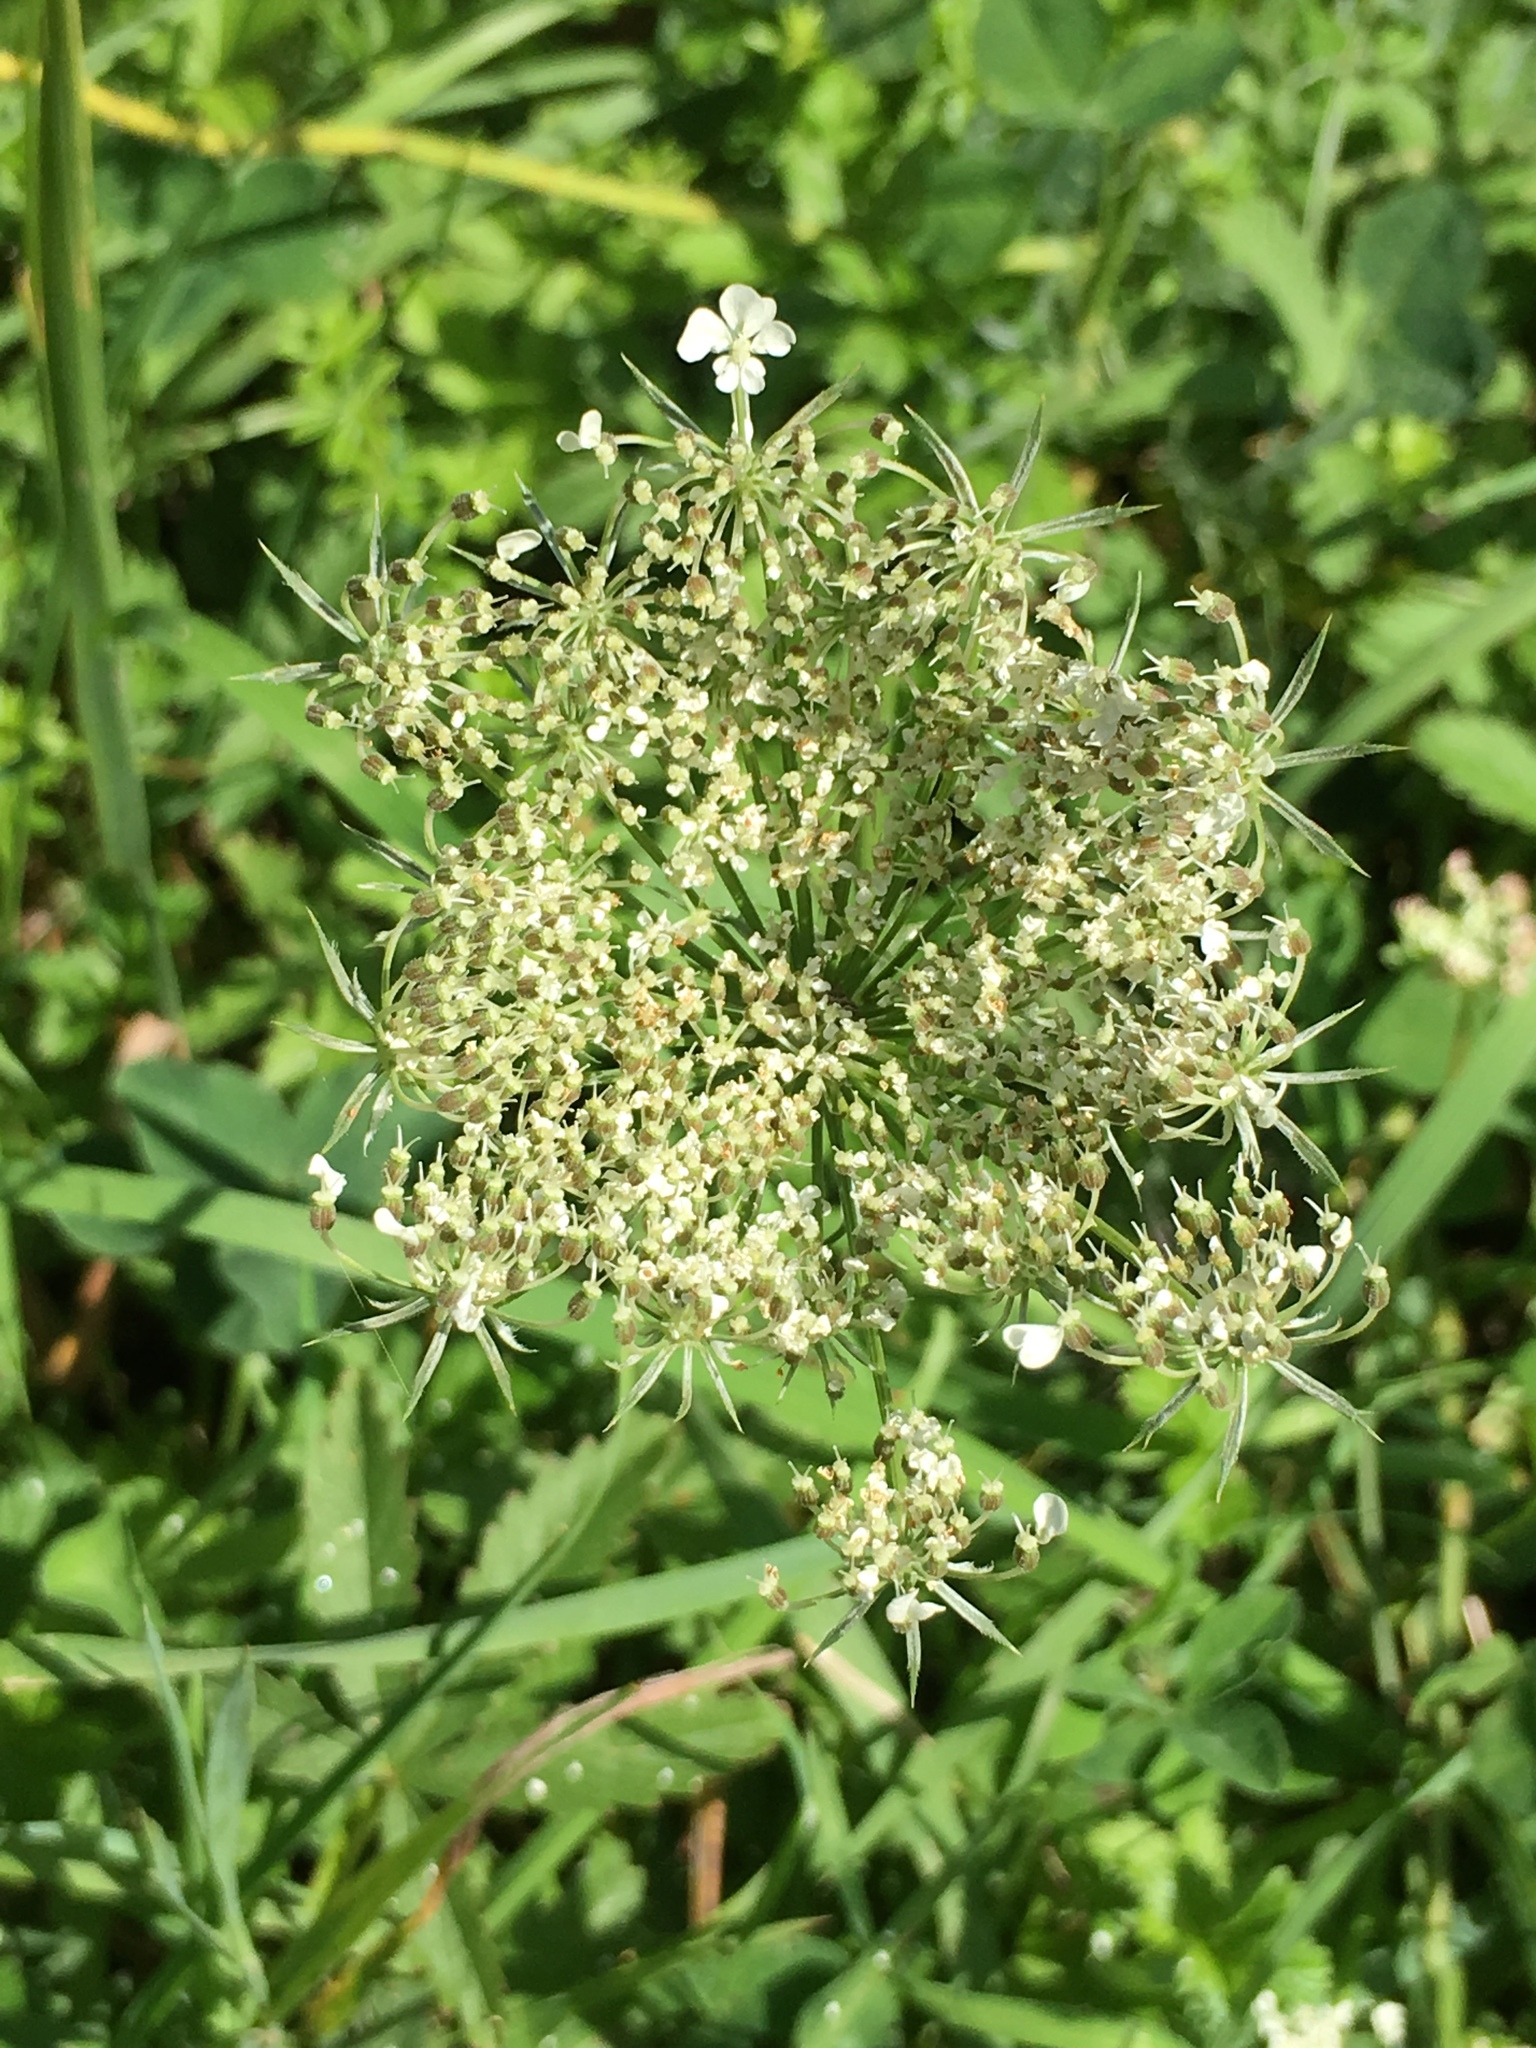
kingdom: Plantae
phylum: Tracheophyta
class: Magnoliopsida
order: Apiales
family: Apiaceae
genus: Daucus
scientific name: Daucus carota
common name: Wild carrot
